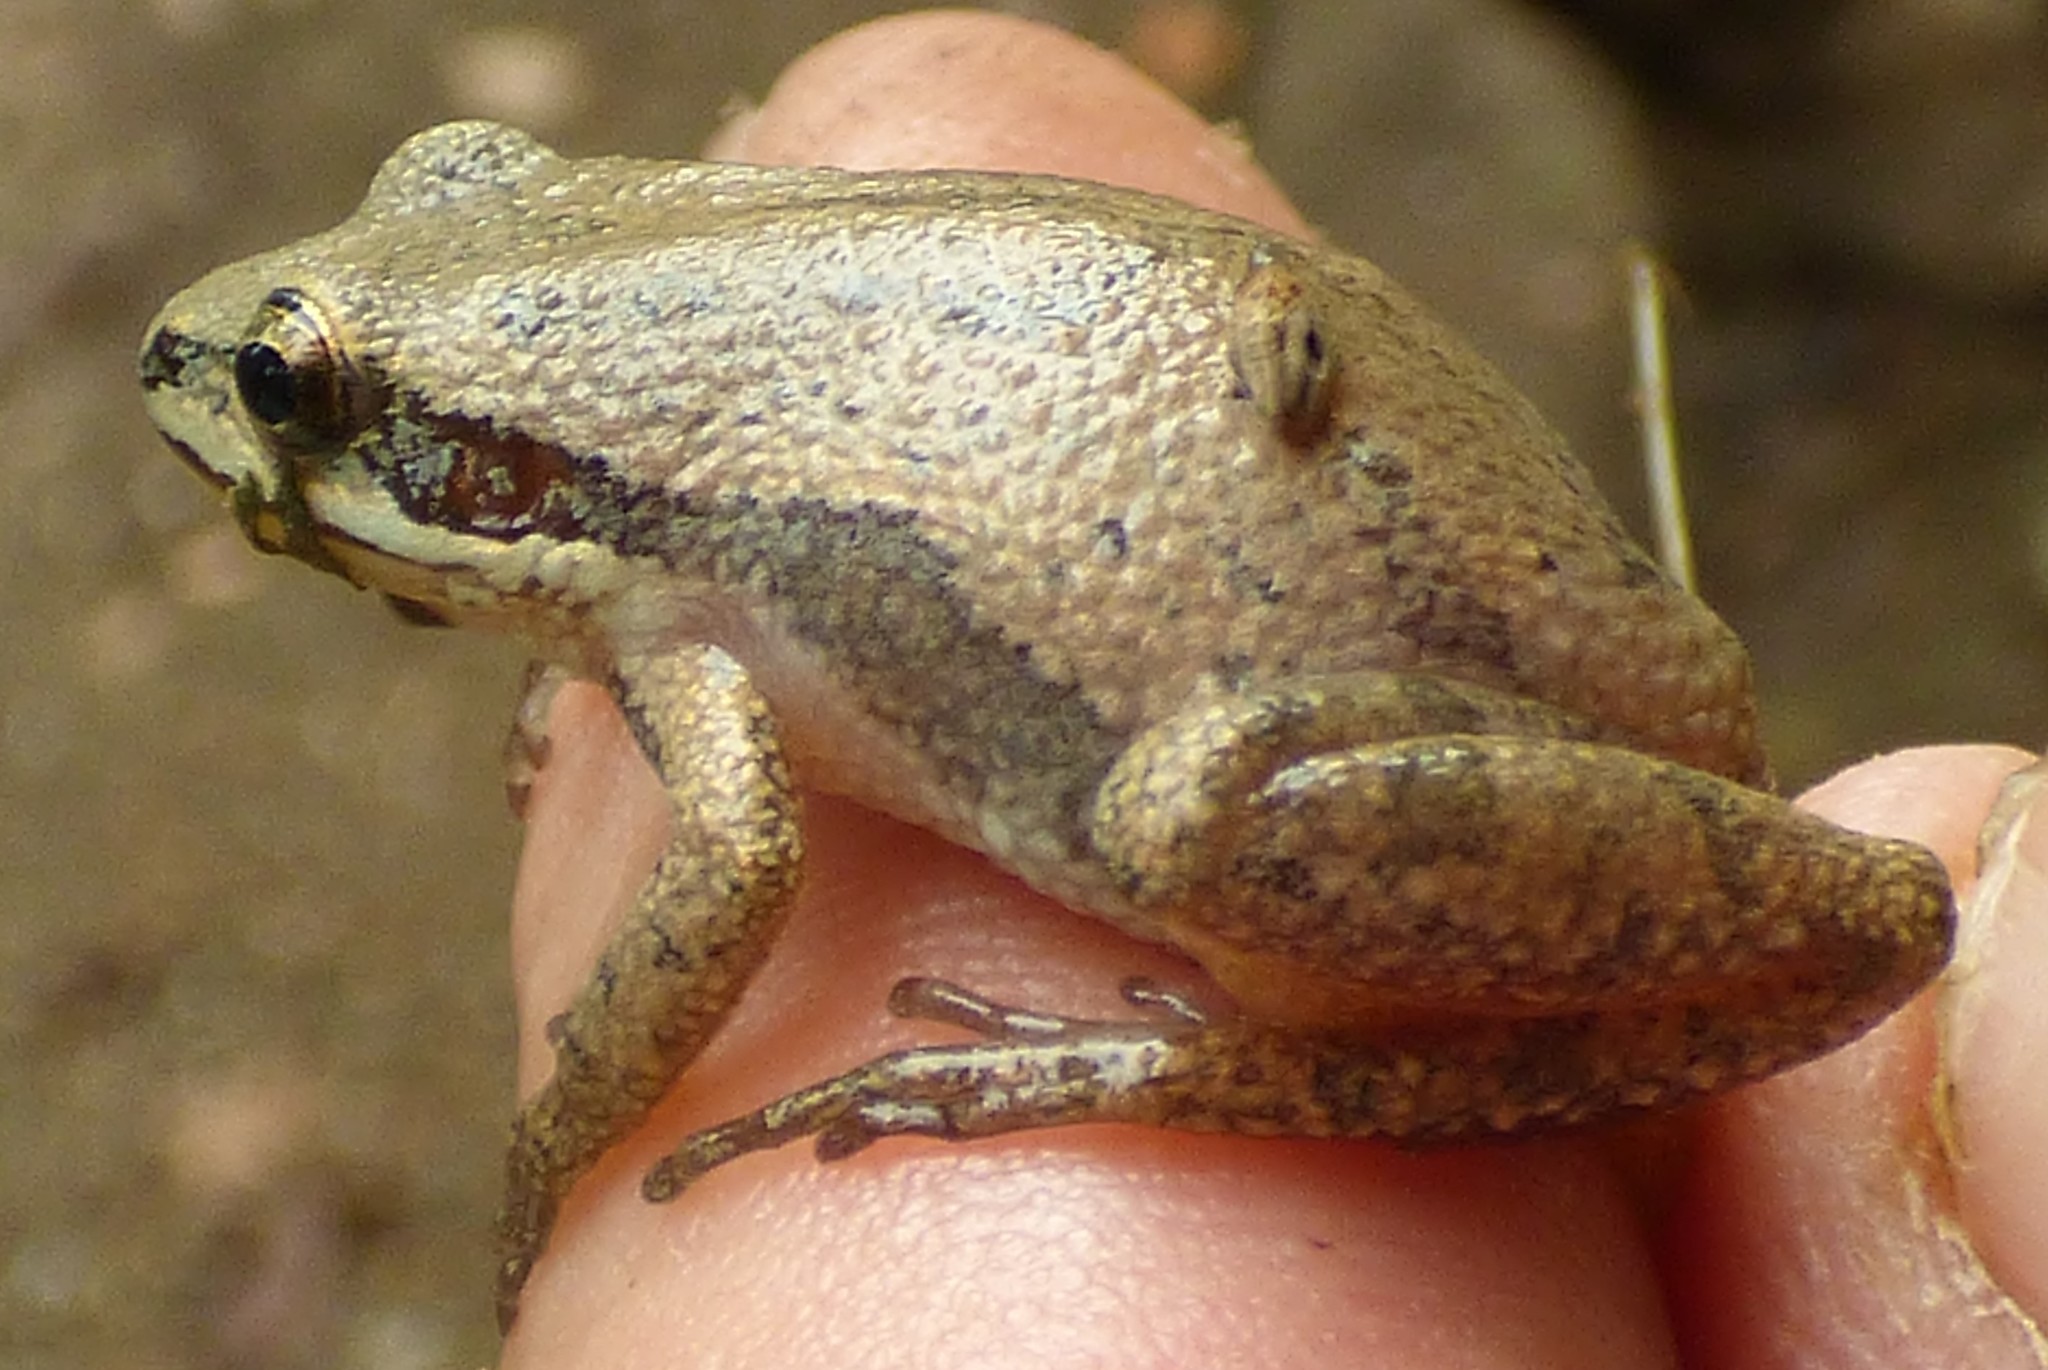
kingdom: Animalia
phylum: Chordata
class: Amphibia
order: Anura
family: Hylidae
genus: Pseudacris
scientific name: Pseudacris feriarum
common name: Upland chorus frog
